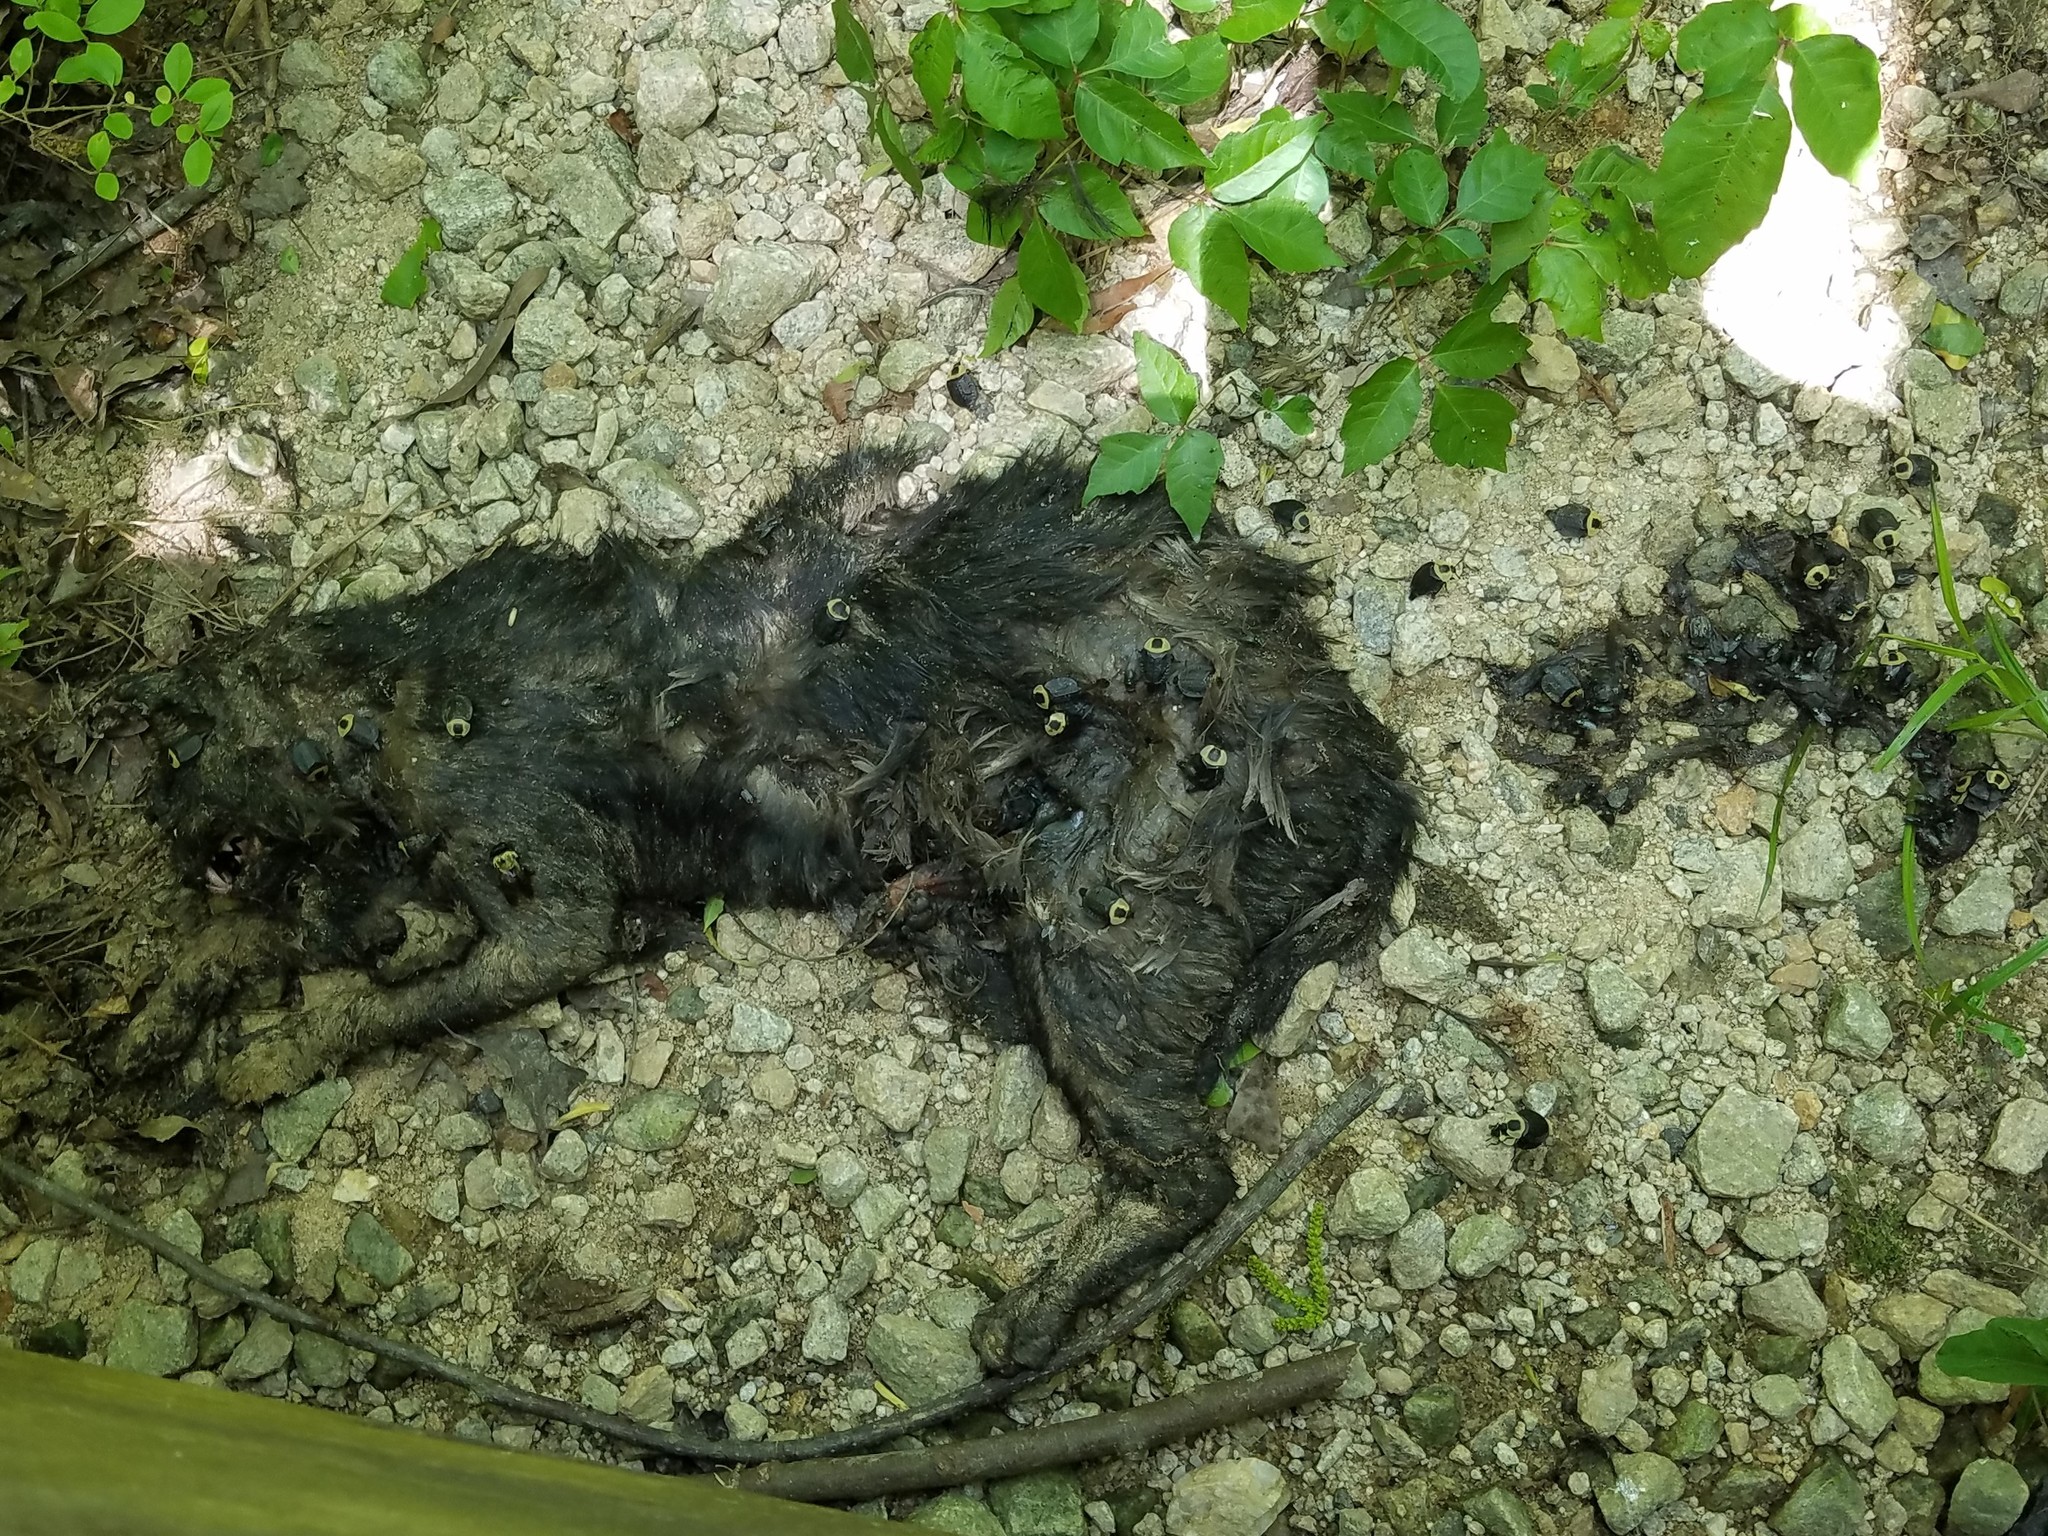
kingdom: Animalia
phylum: Chordata
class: Mammalia
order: Carnivora
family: Felidae
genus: Felis
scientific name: Felis catus
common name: Domestic cat
